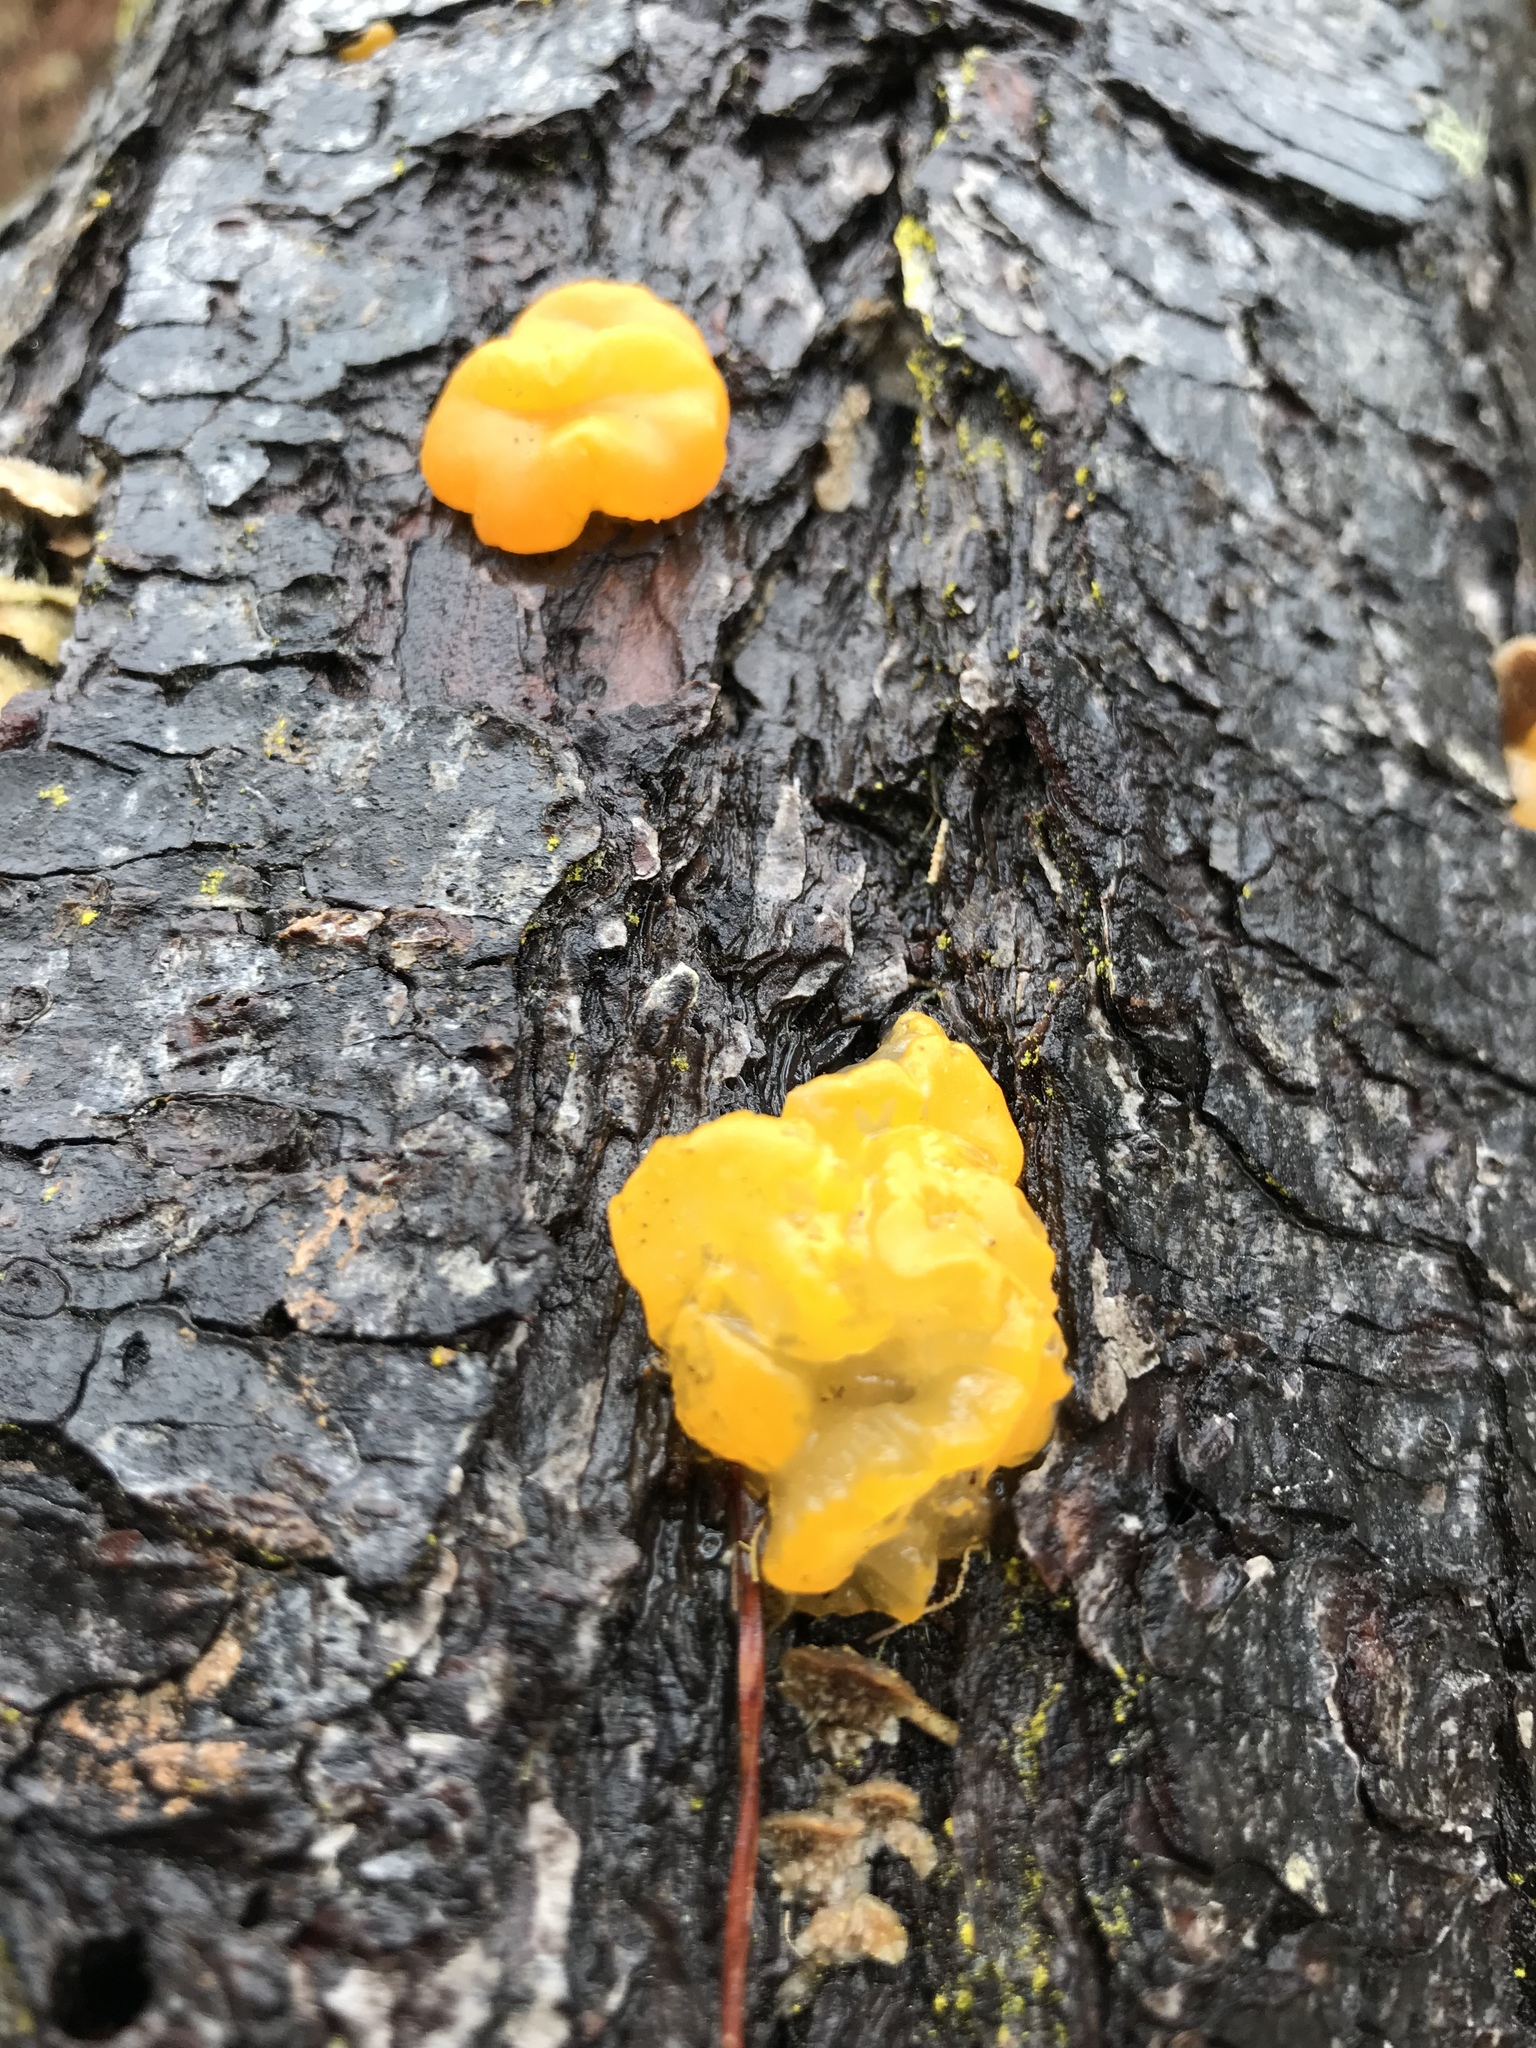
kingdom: Fungi
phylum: Basidiomycota
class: Tremellomycetes
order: Tremellales
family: Tremellaceae
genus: Tremella
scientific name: Tremella mesenterica
